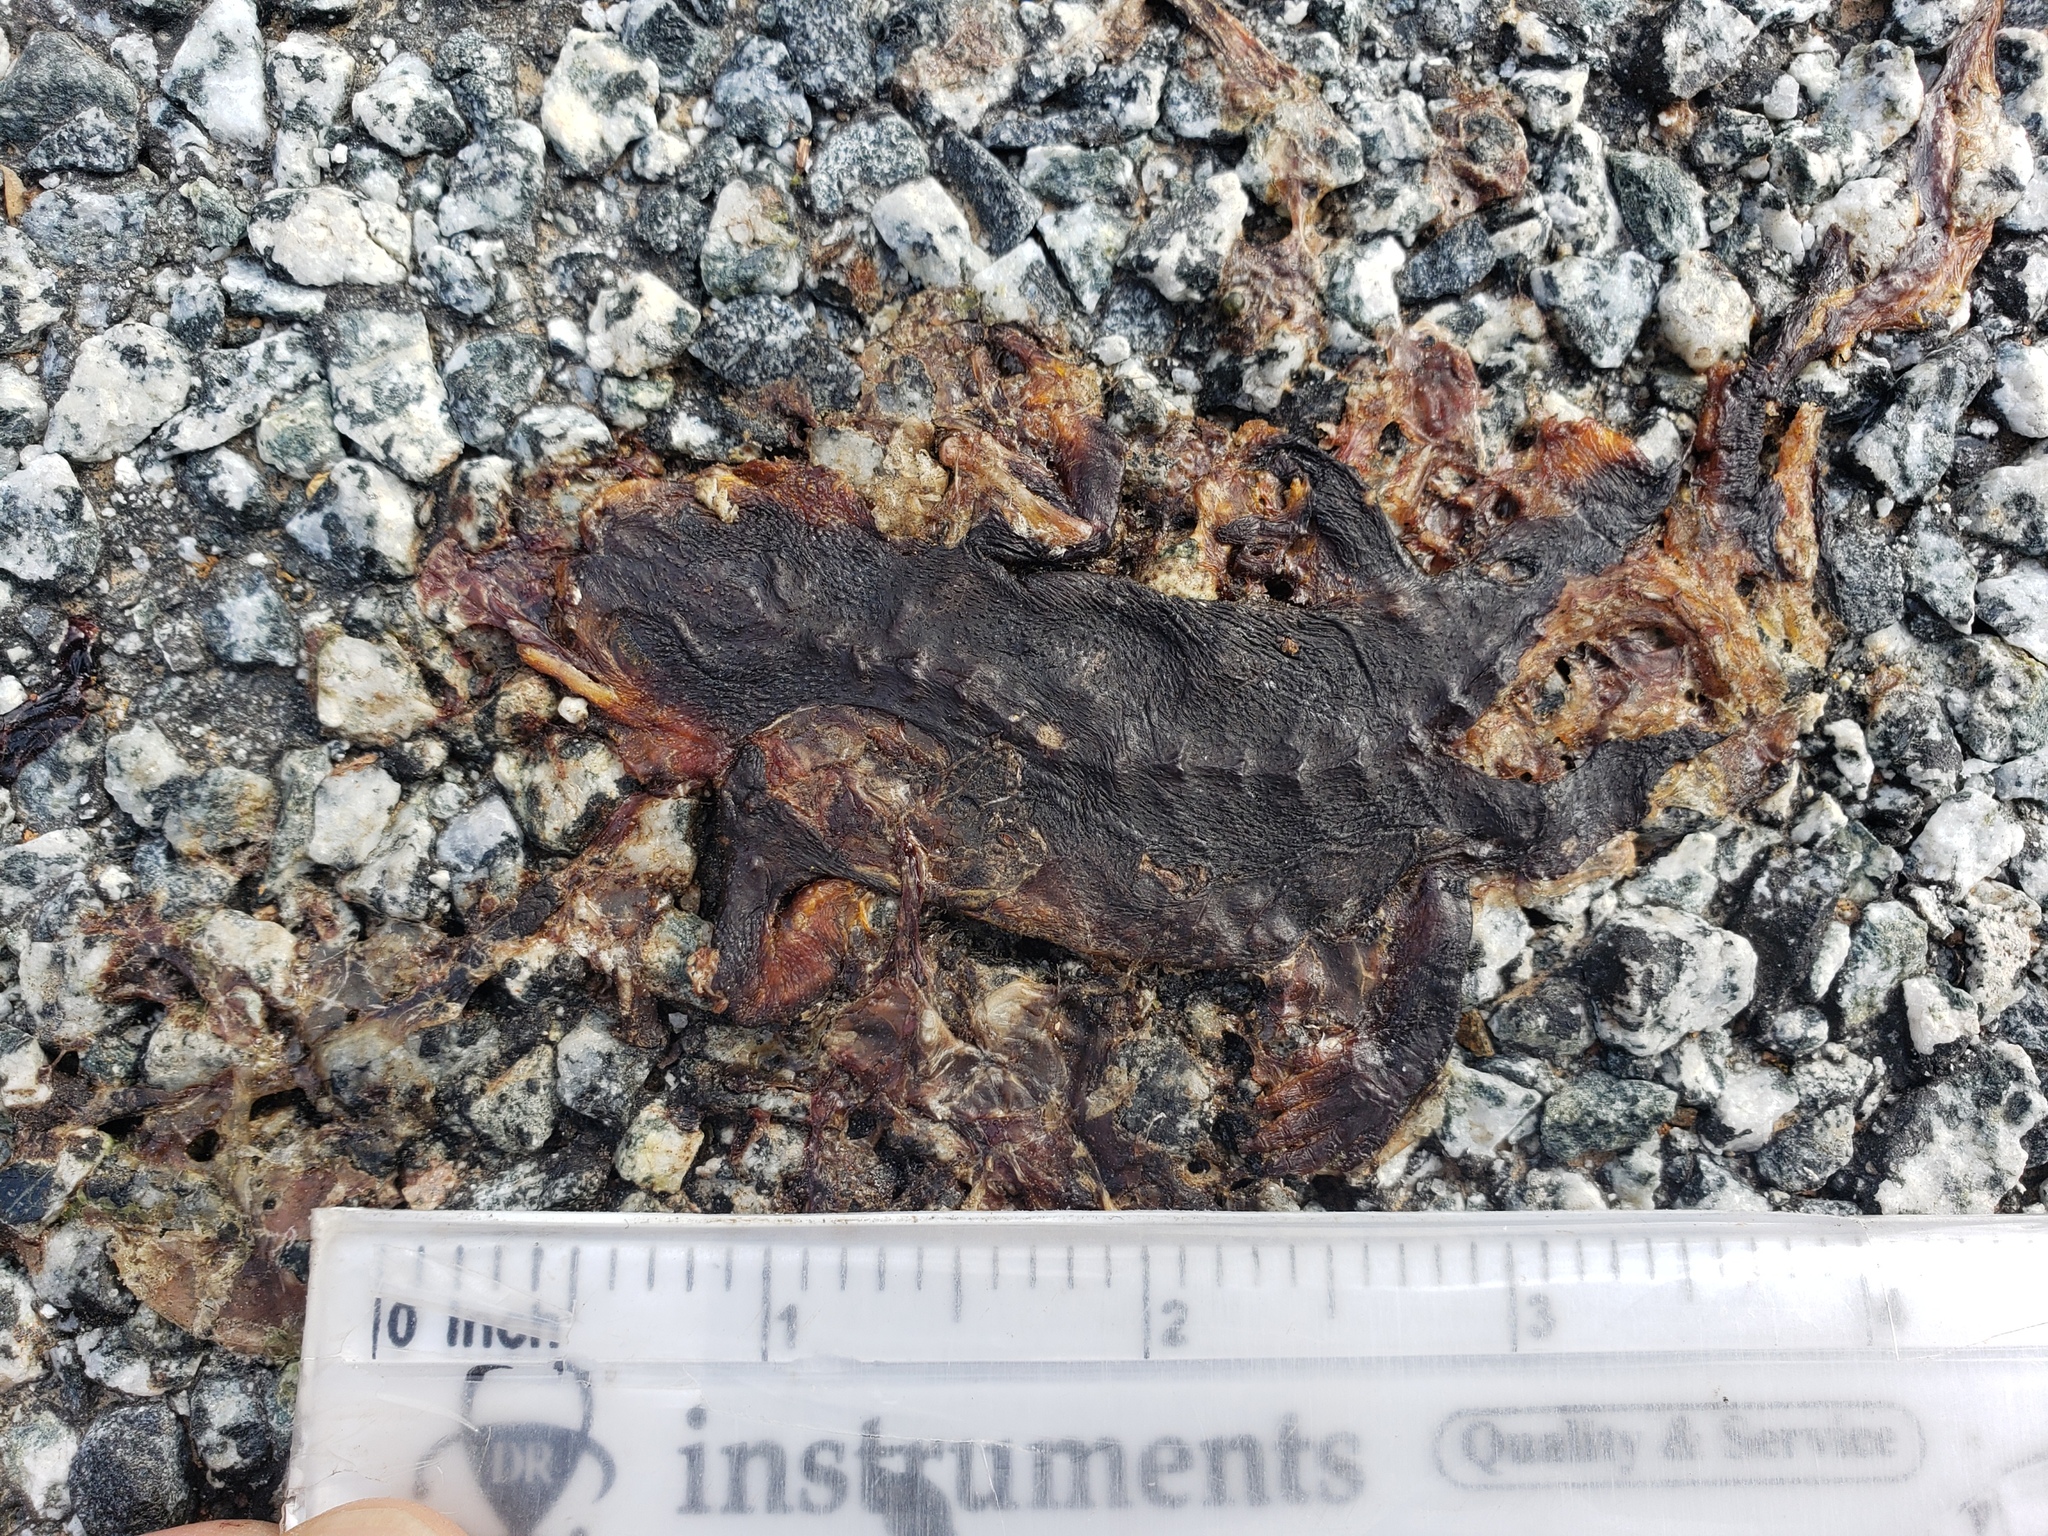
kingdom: Animalia
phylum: Chordata
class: Amphibia
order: Caudata
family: Salamandridae
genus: Taricha
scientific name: Taricha
